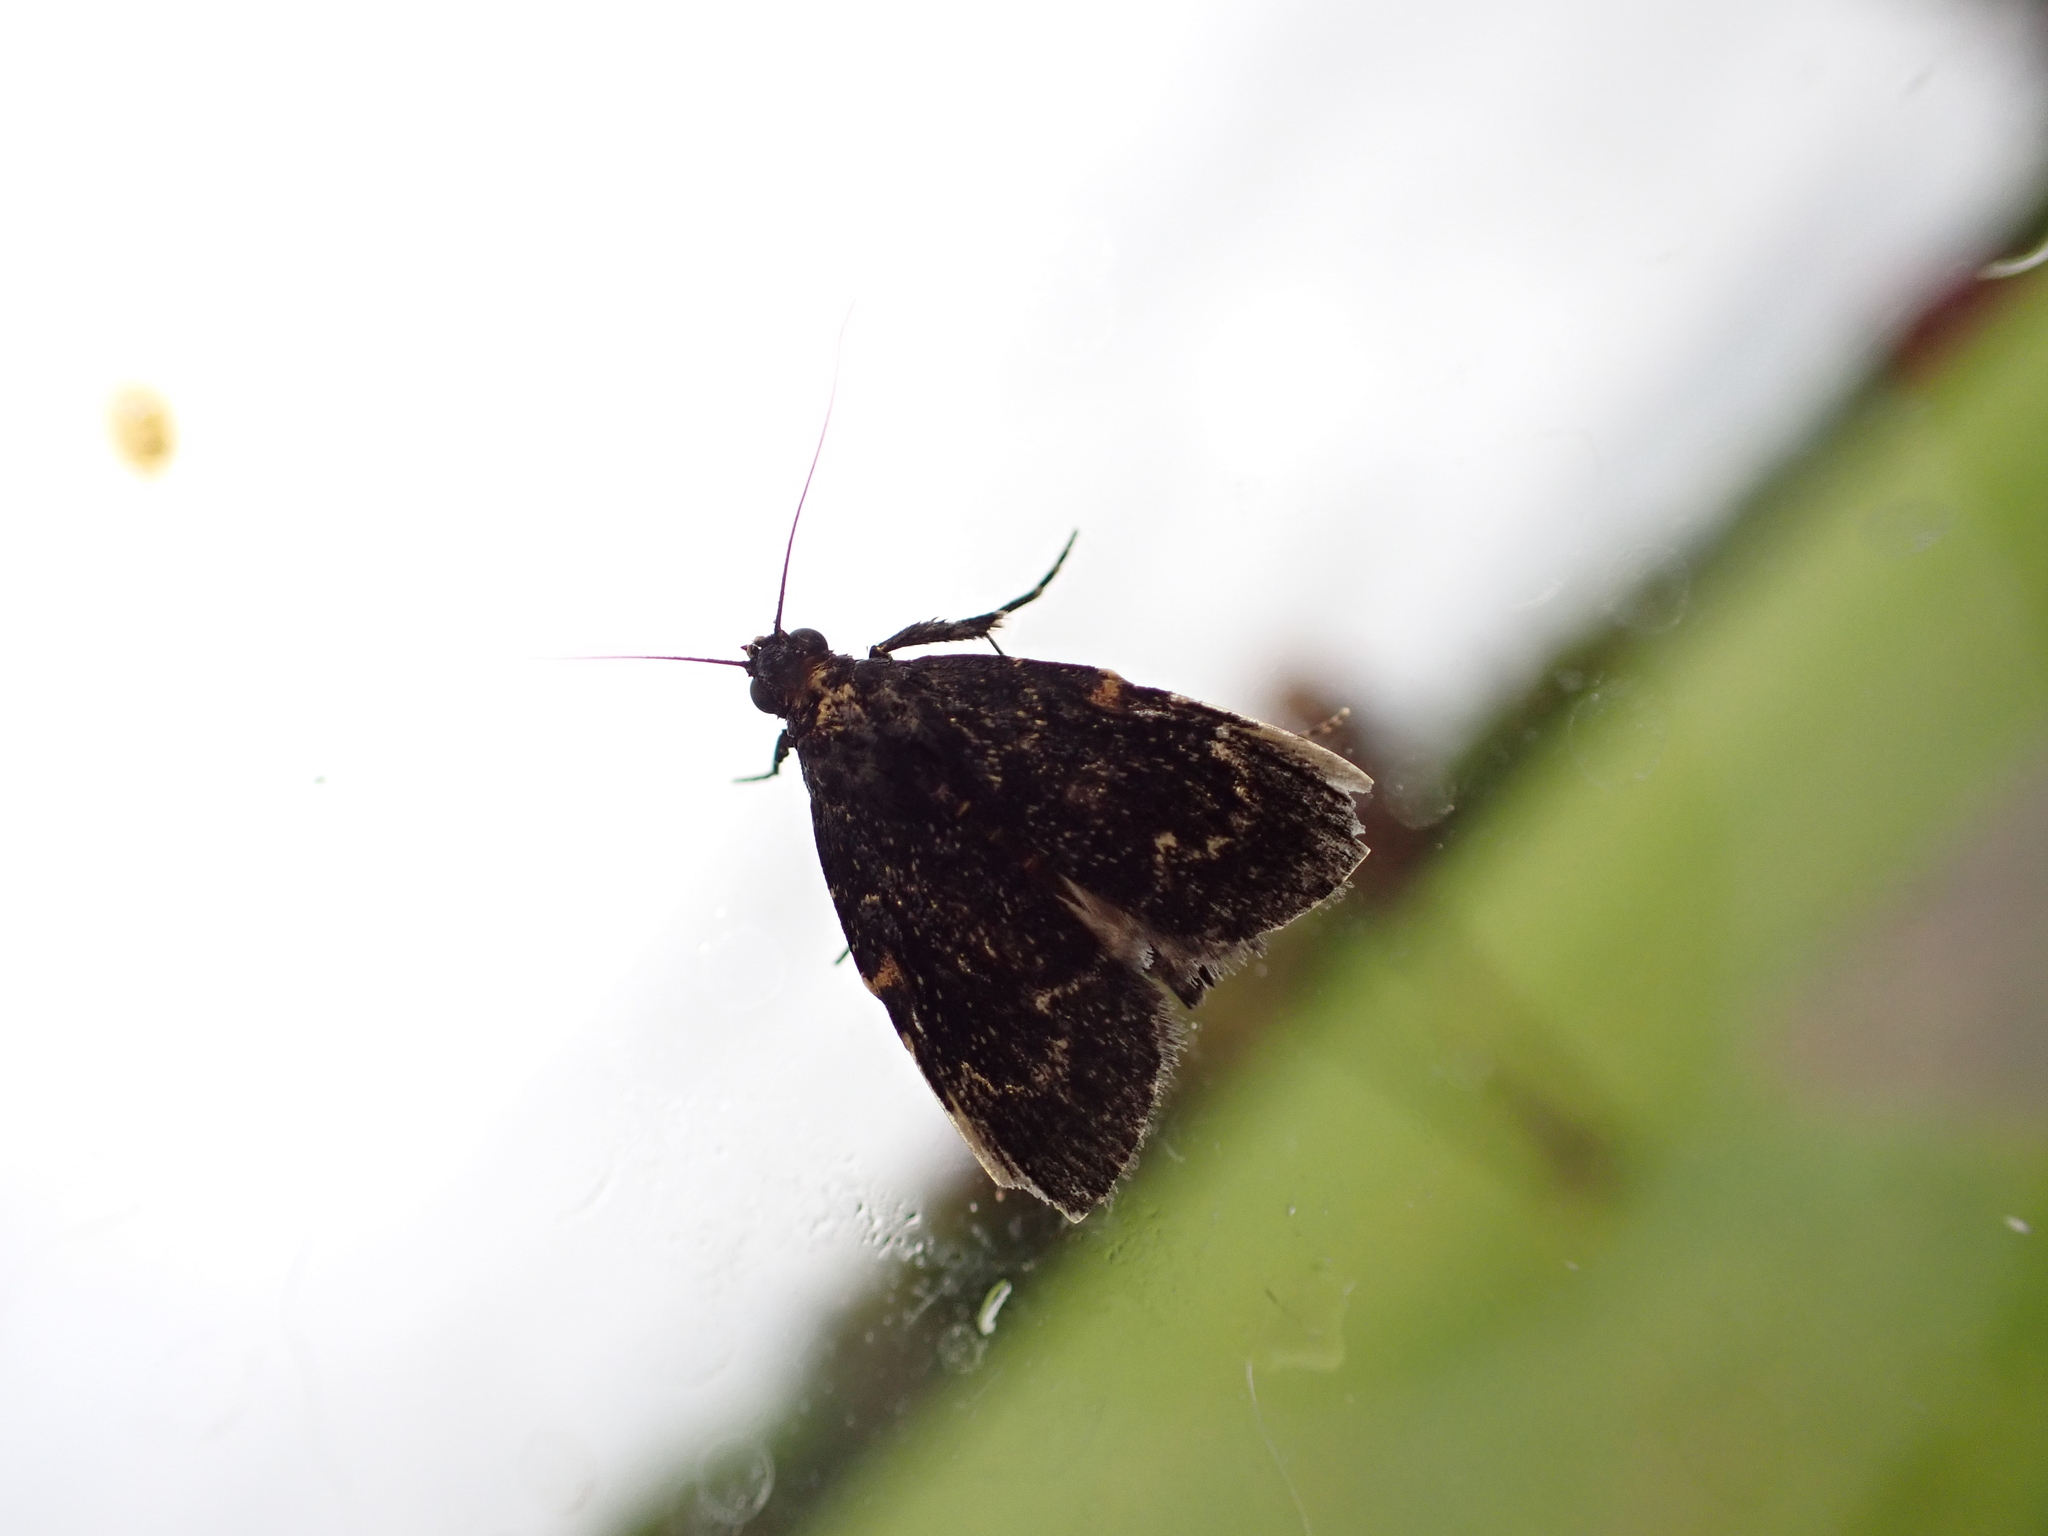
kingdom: Animalia
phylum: Arthropoda
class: Insecta
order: Lepidoptera
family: Pyralidae
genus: Stericta
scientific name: Stericta carbonalis
